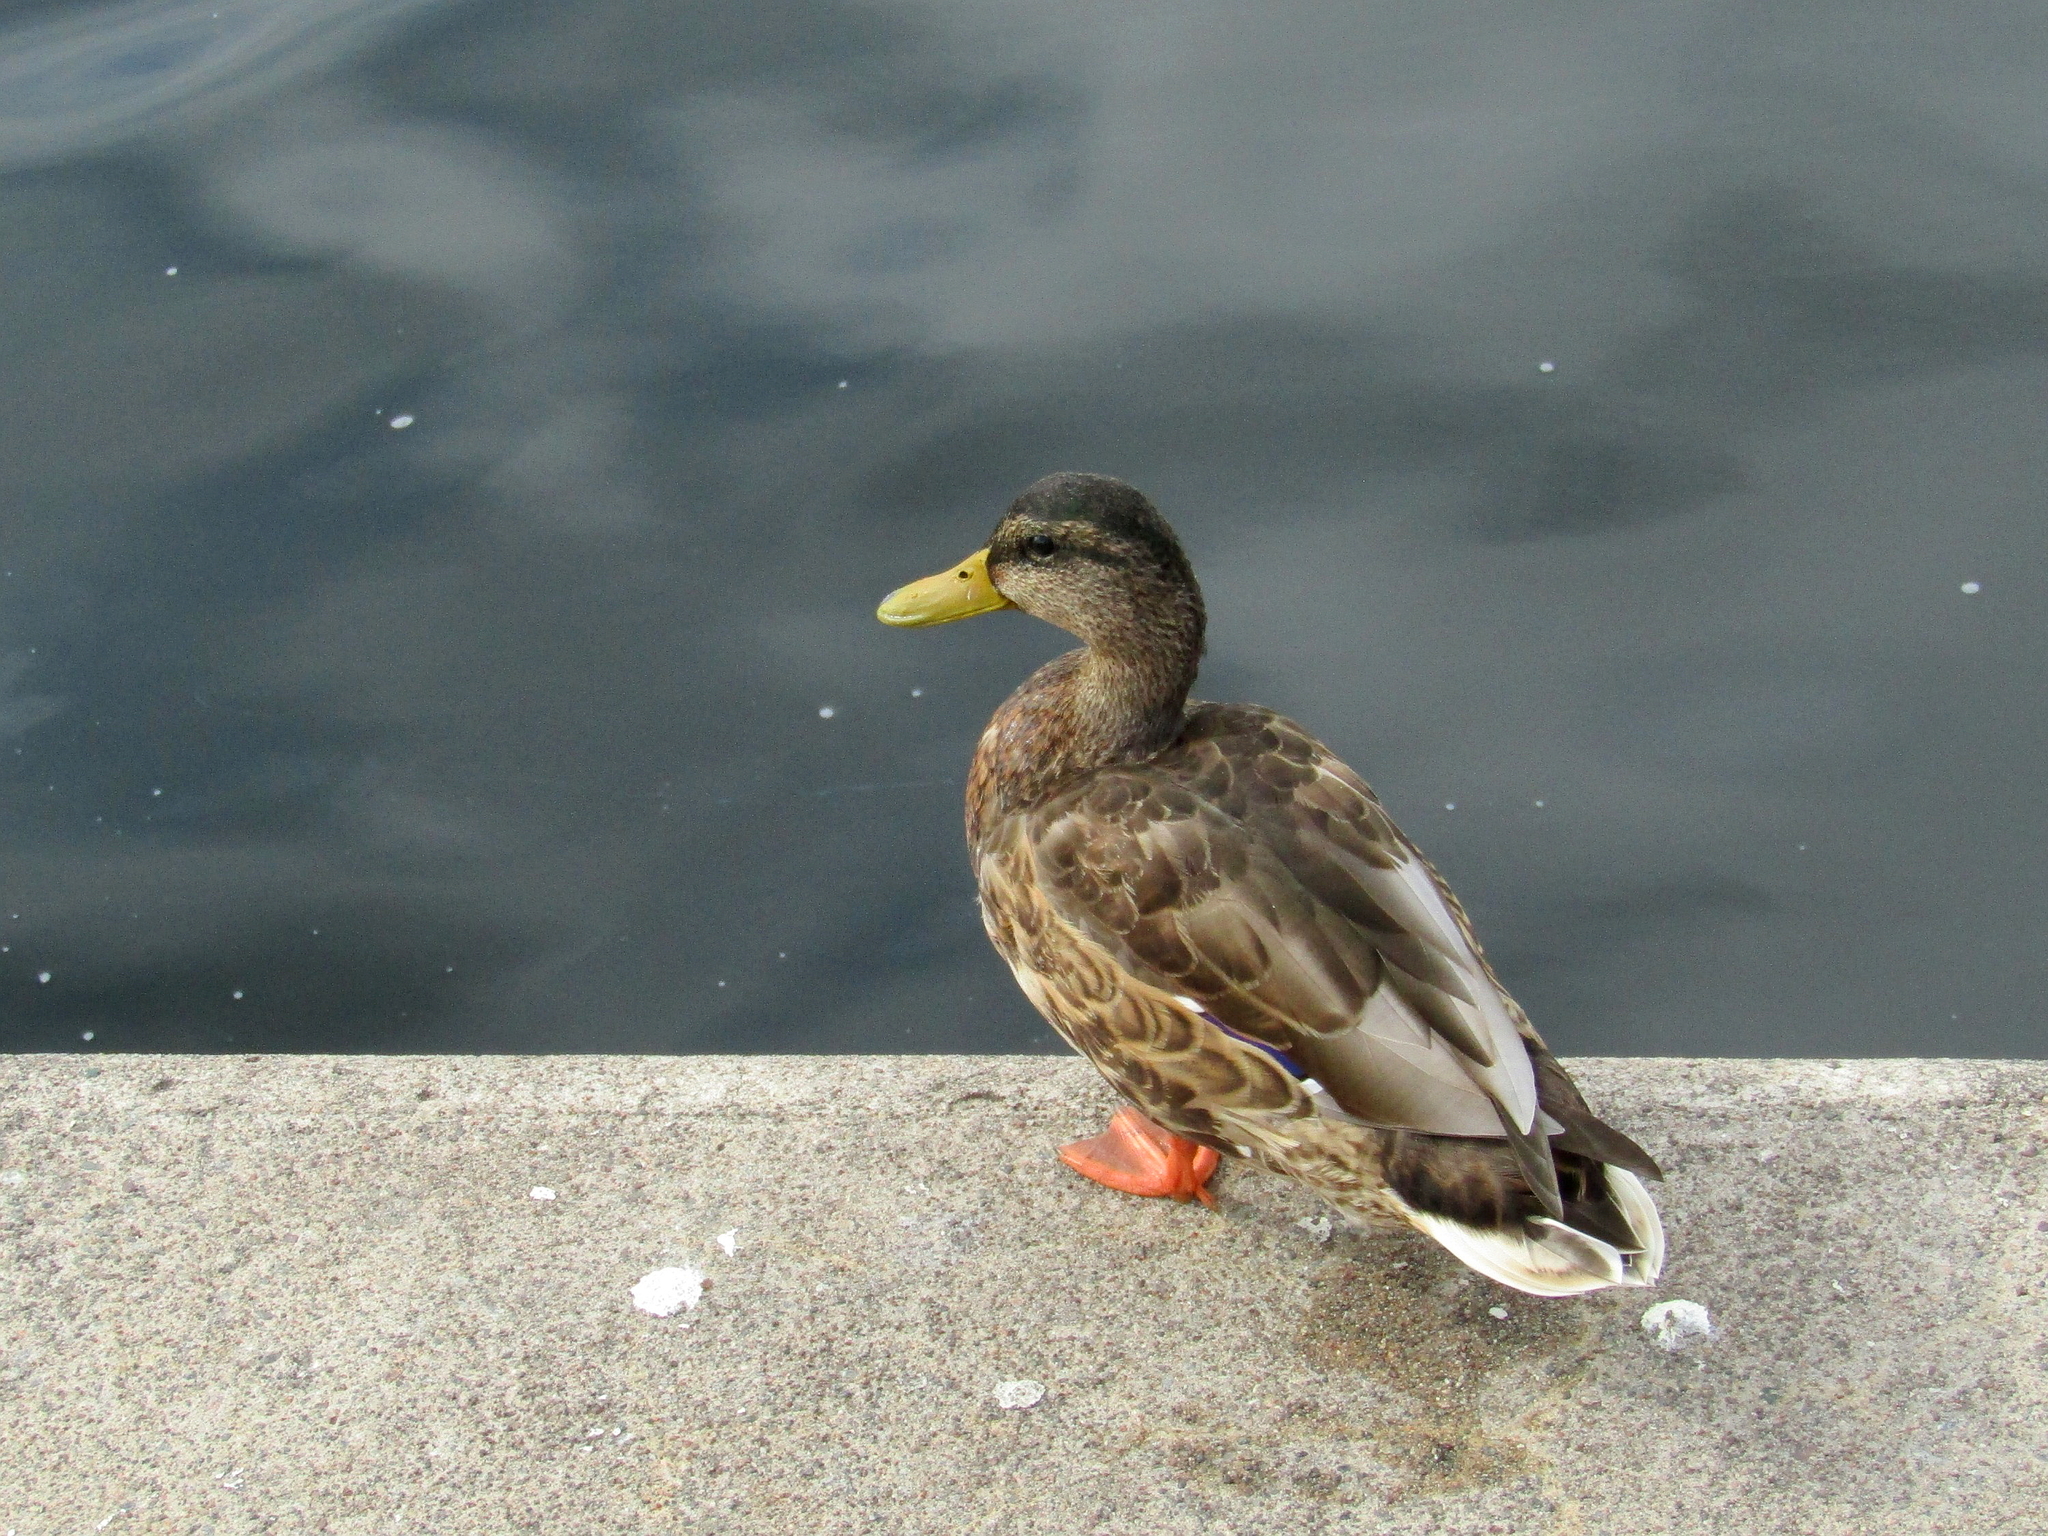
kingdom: Animalia
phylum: Chordata
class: Aves
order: Anseriformes
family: Anatidae
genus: Anas
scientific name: Anas platyrhynchos
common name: Mallard
